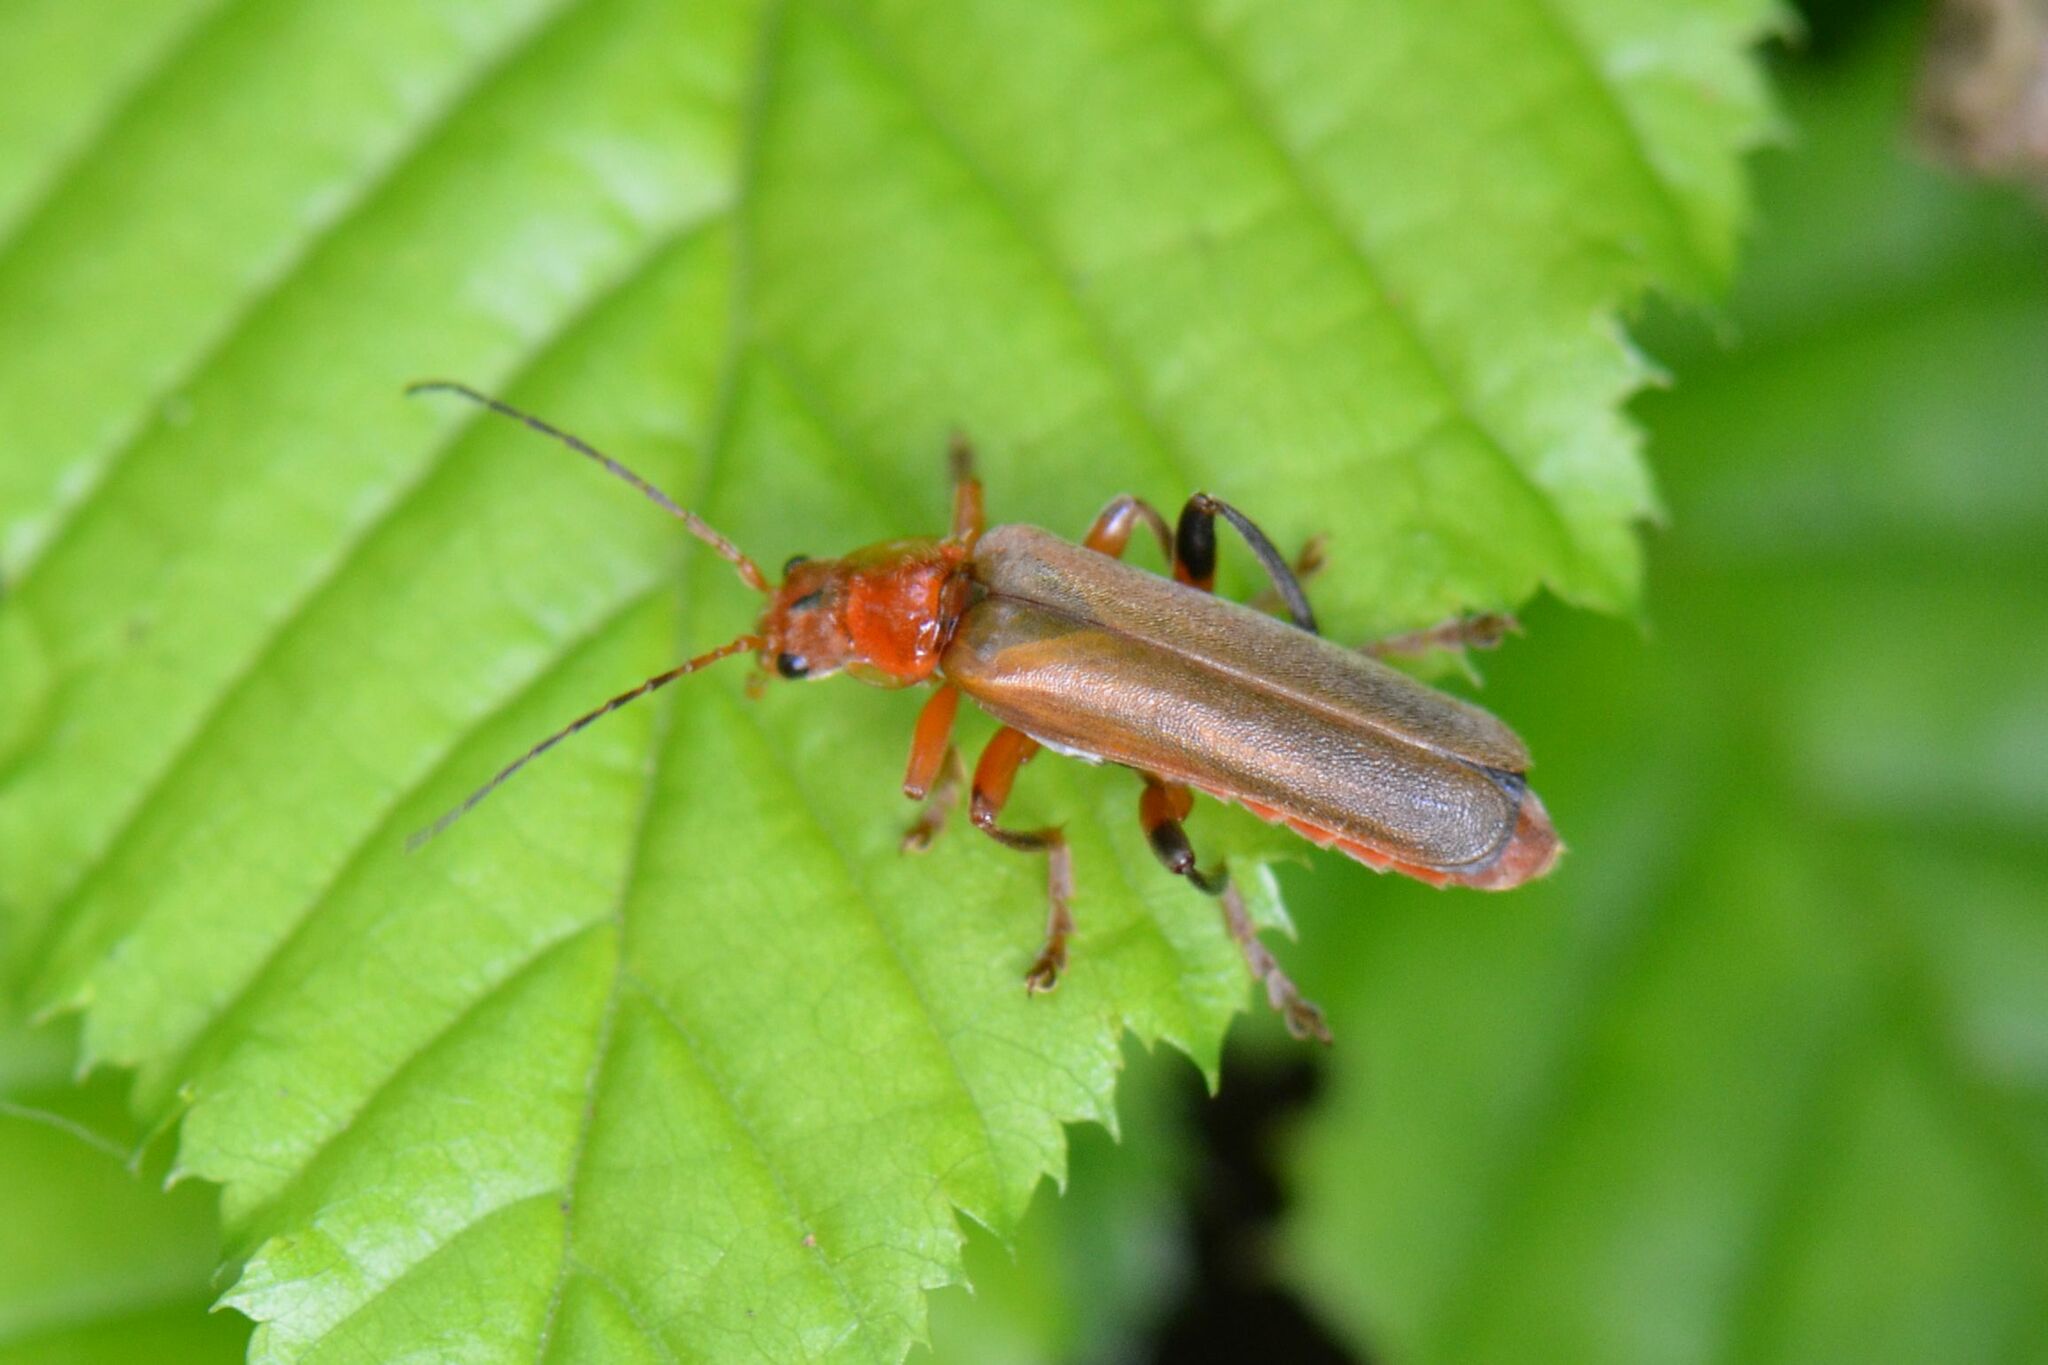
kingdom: Animalia
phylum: Arthropoda
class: Insecta
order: Coleoptera
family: Cantharidae
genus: Cantharis
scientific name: Cantharis livida
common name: Livid soldier beetle
